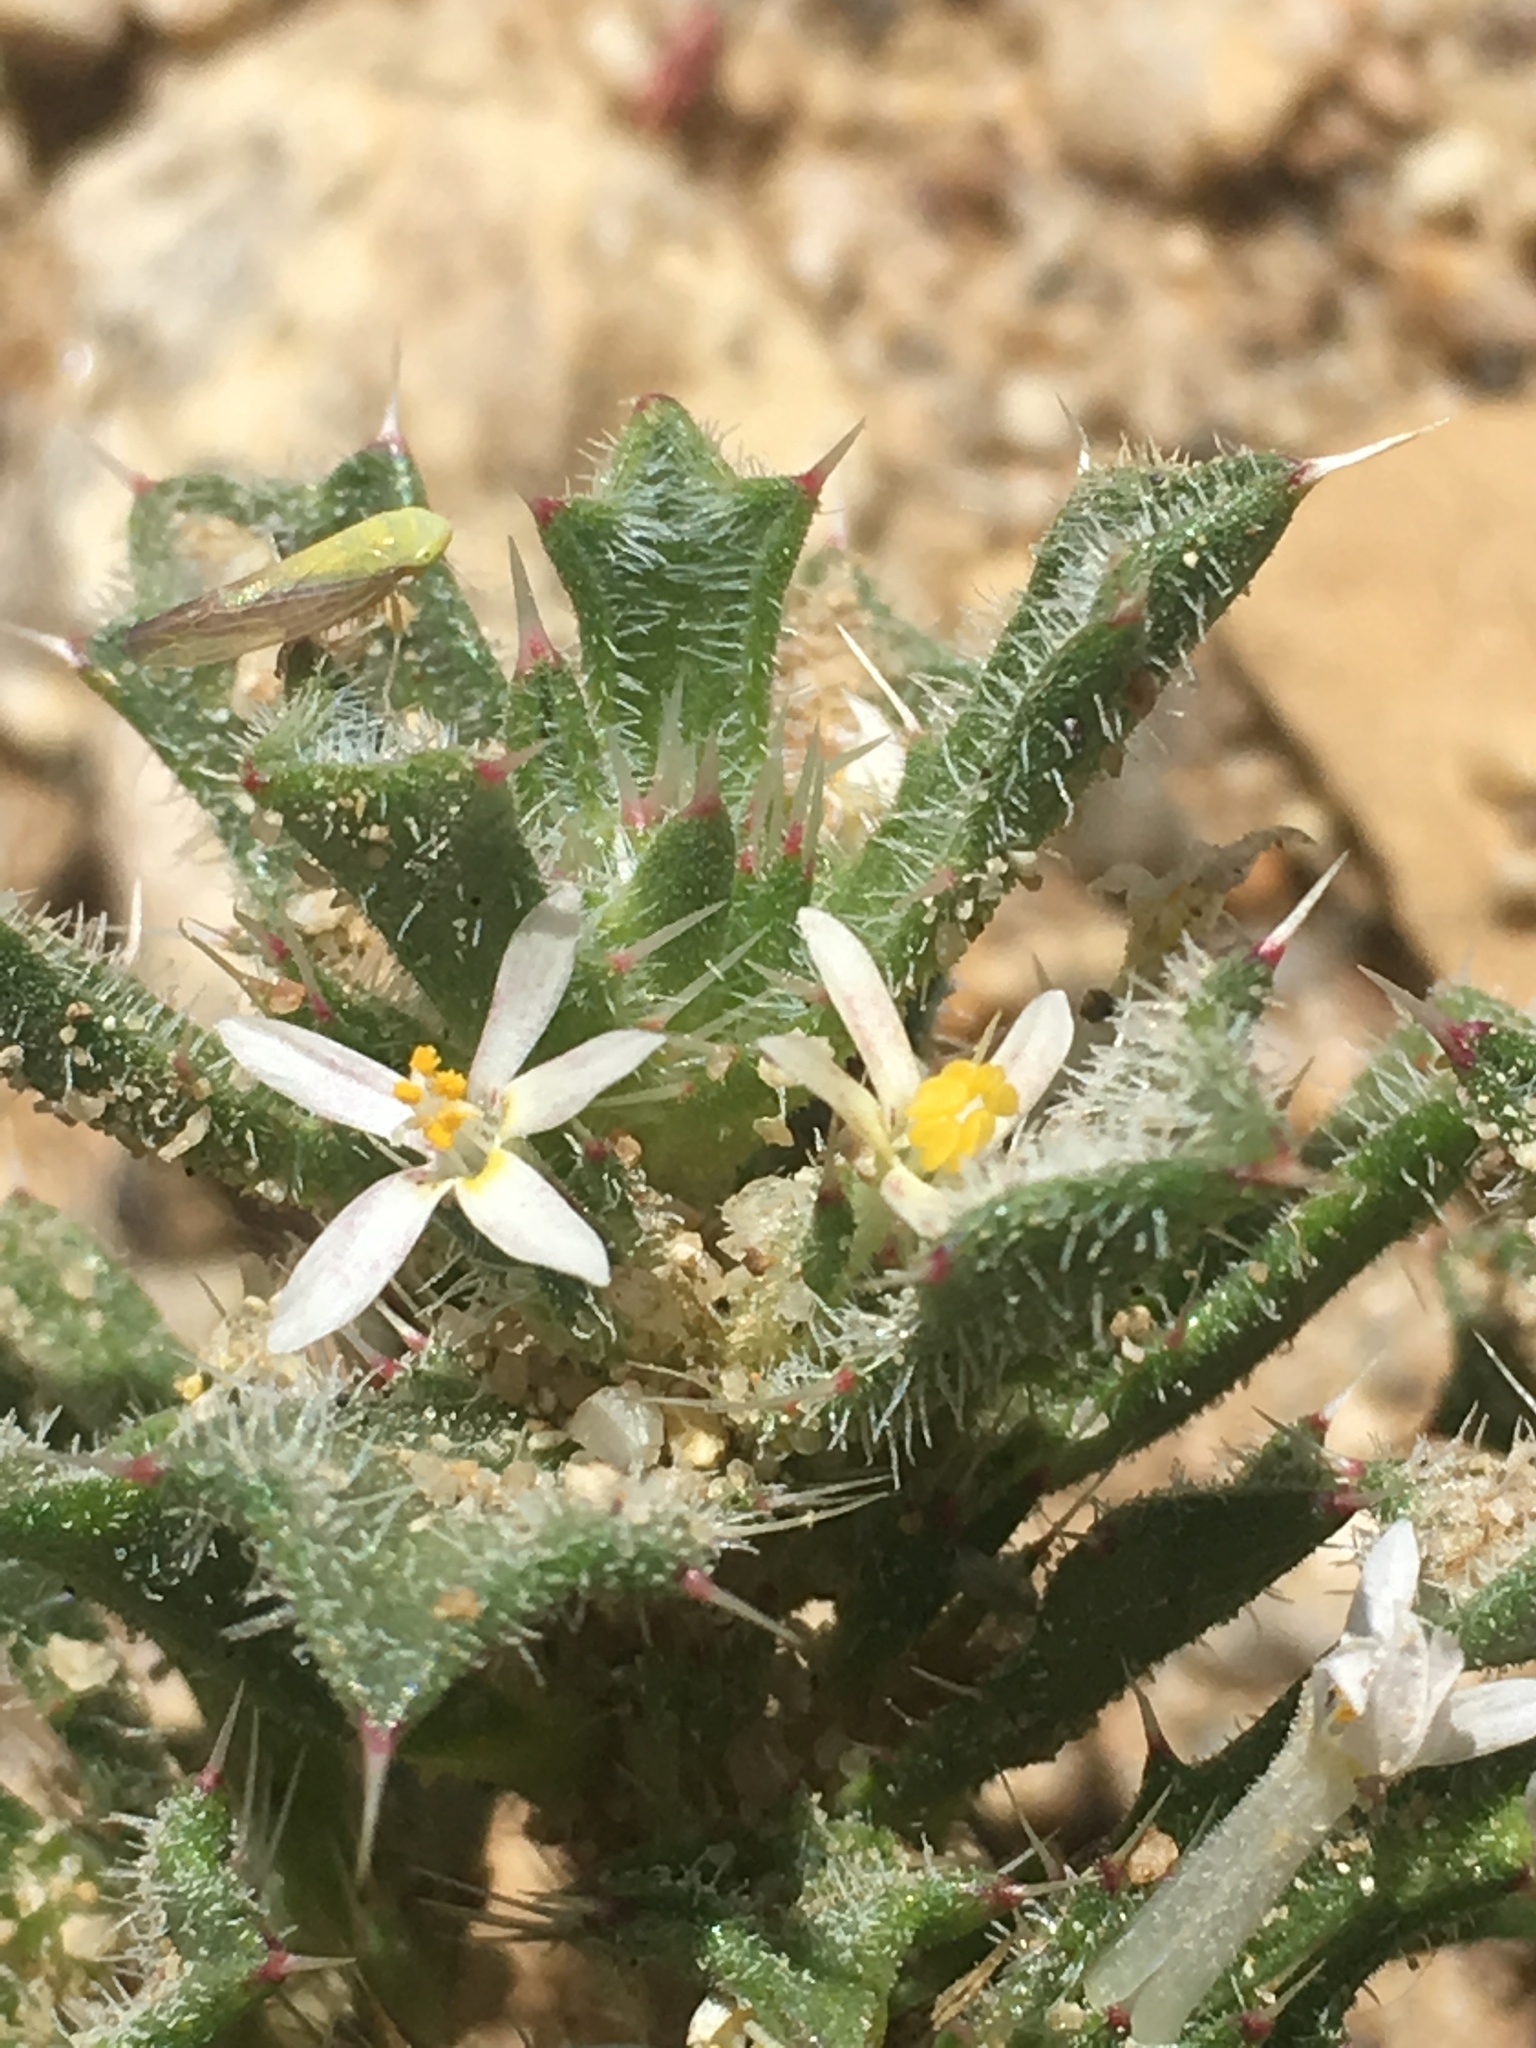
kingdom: Plantae
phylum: Tracheophyta
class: Magnoliopsida
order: Ericales
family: Polemoniaceae
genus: Loeseliastrum
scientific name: Loeseliastrum schottii
